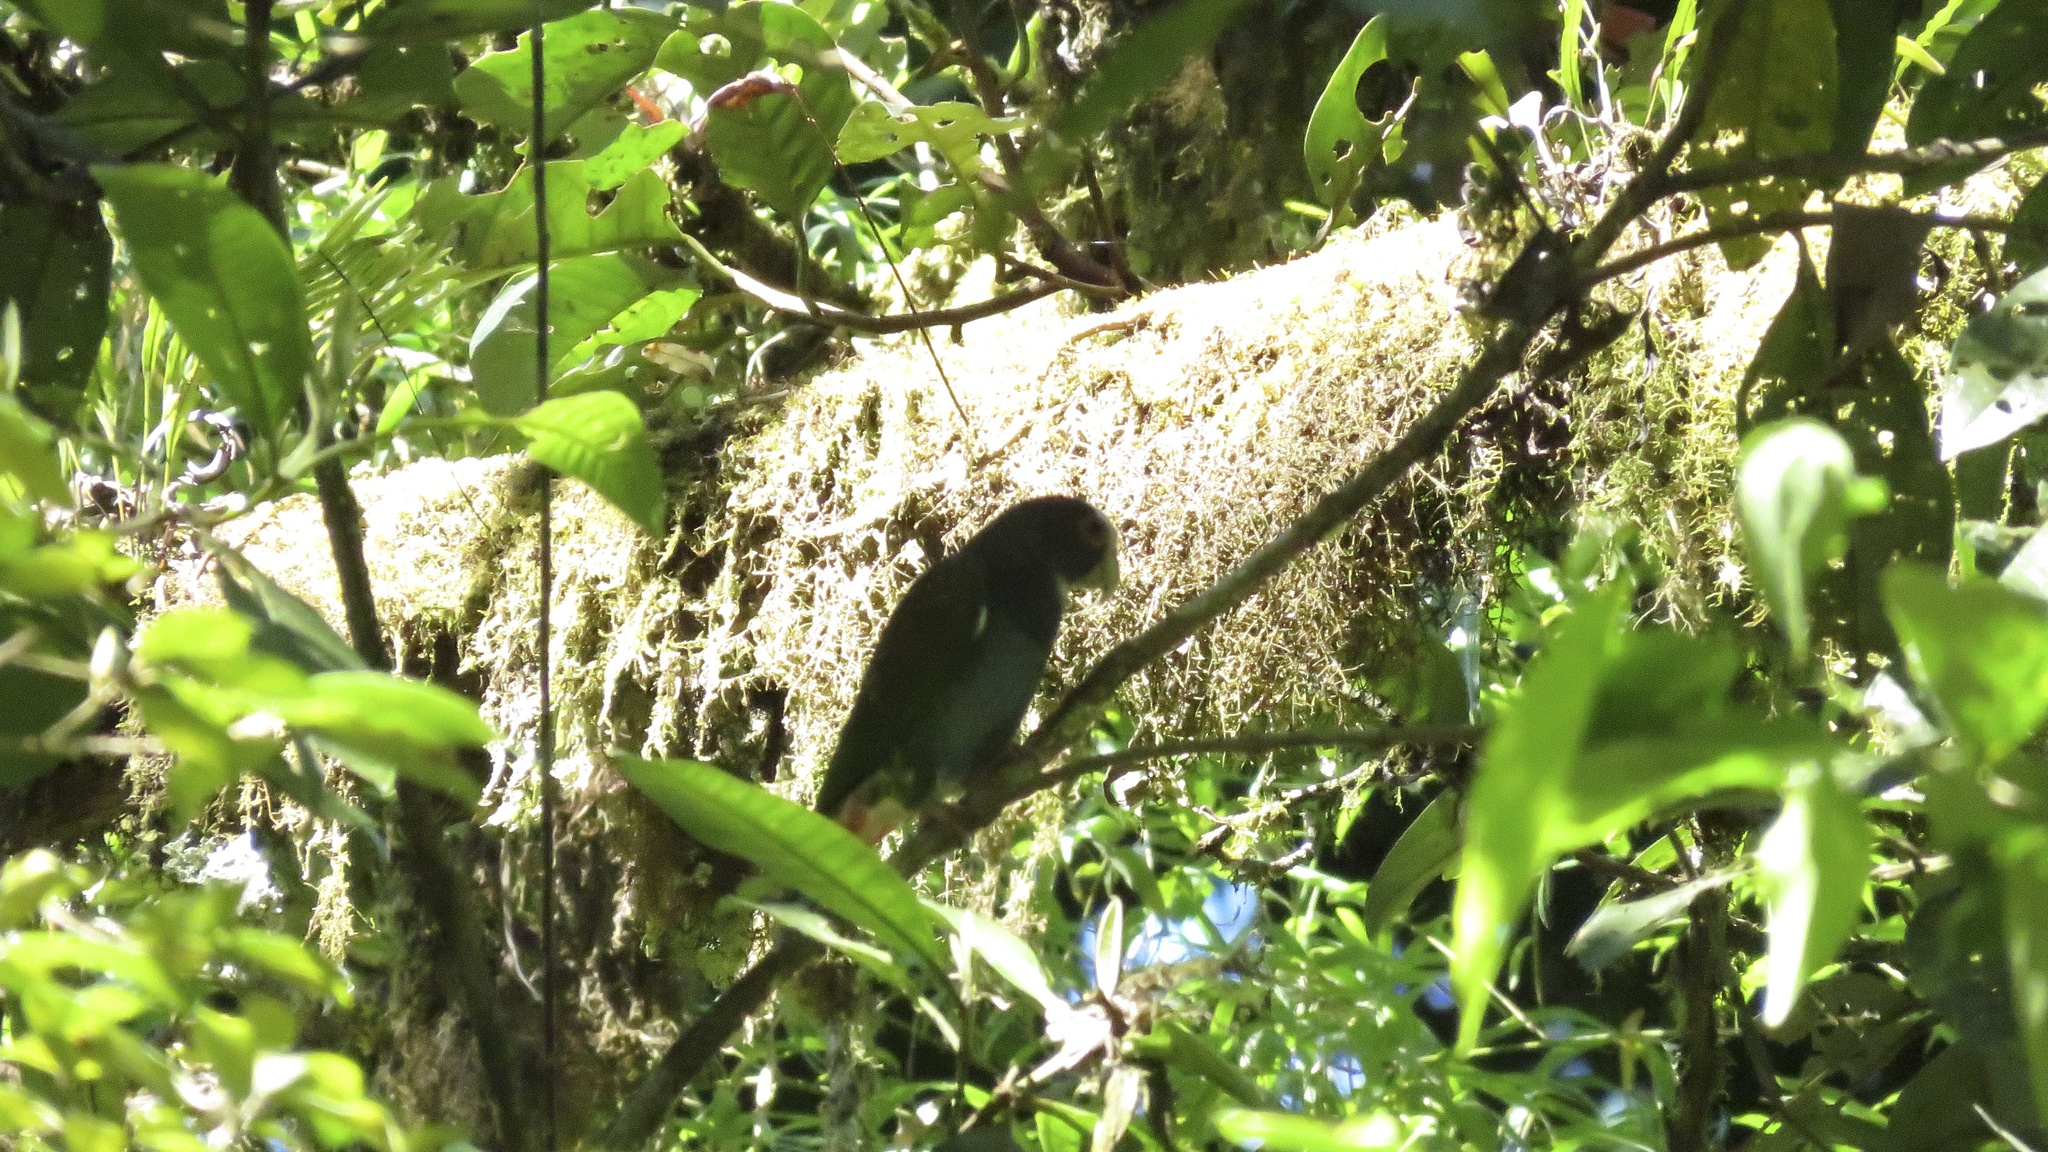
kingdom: Animalia
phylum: Chordata
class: Aves
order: Psittaciformes
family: Psittacidae
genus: Pionus
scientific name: Pionus senilis
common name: White-crowned parrot
